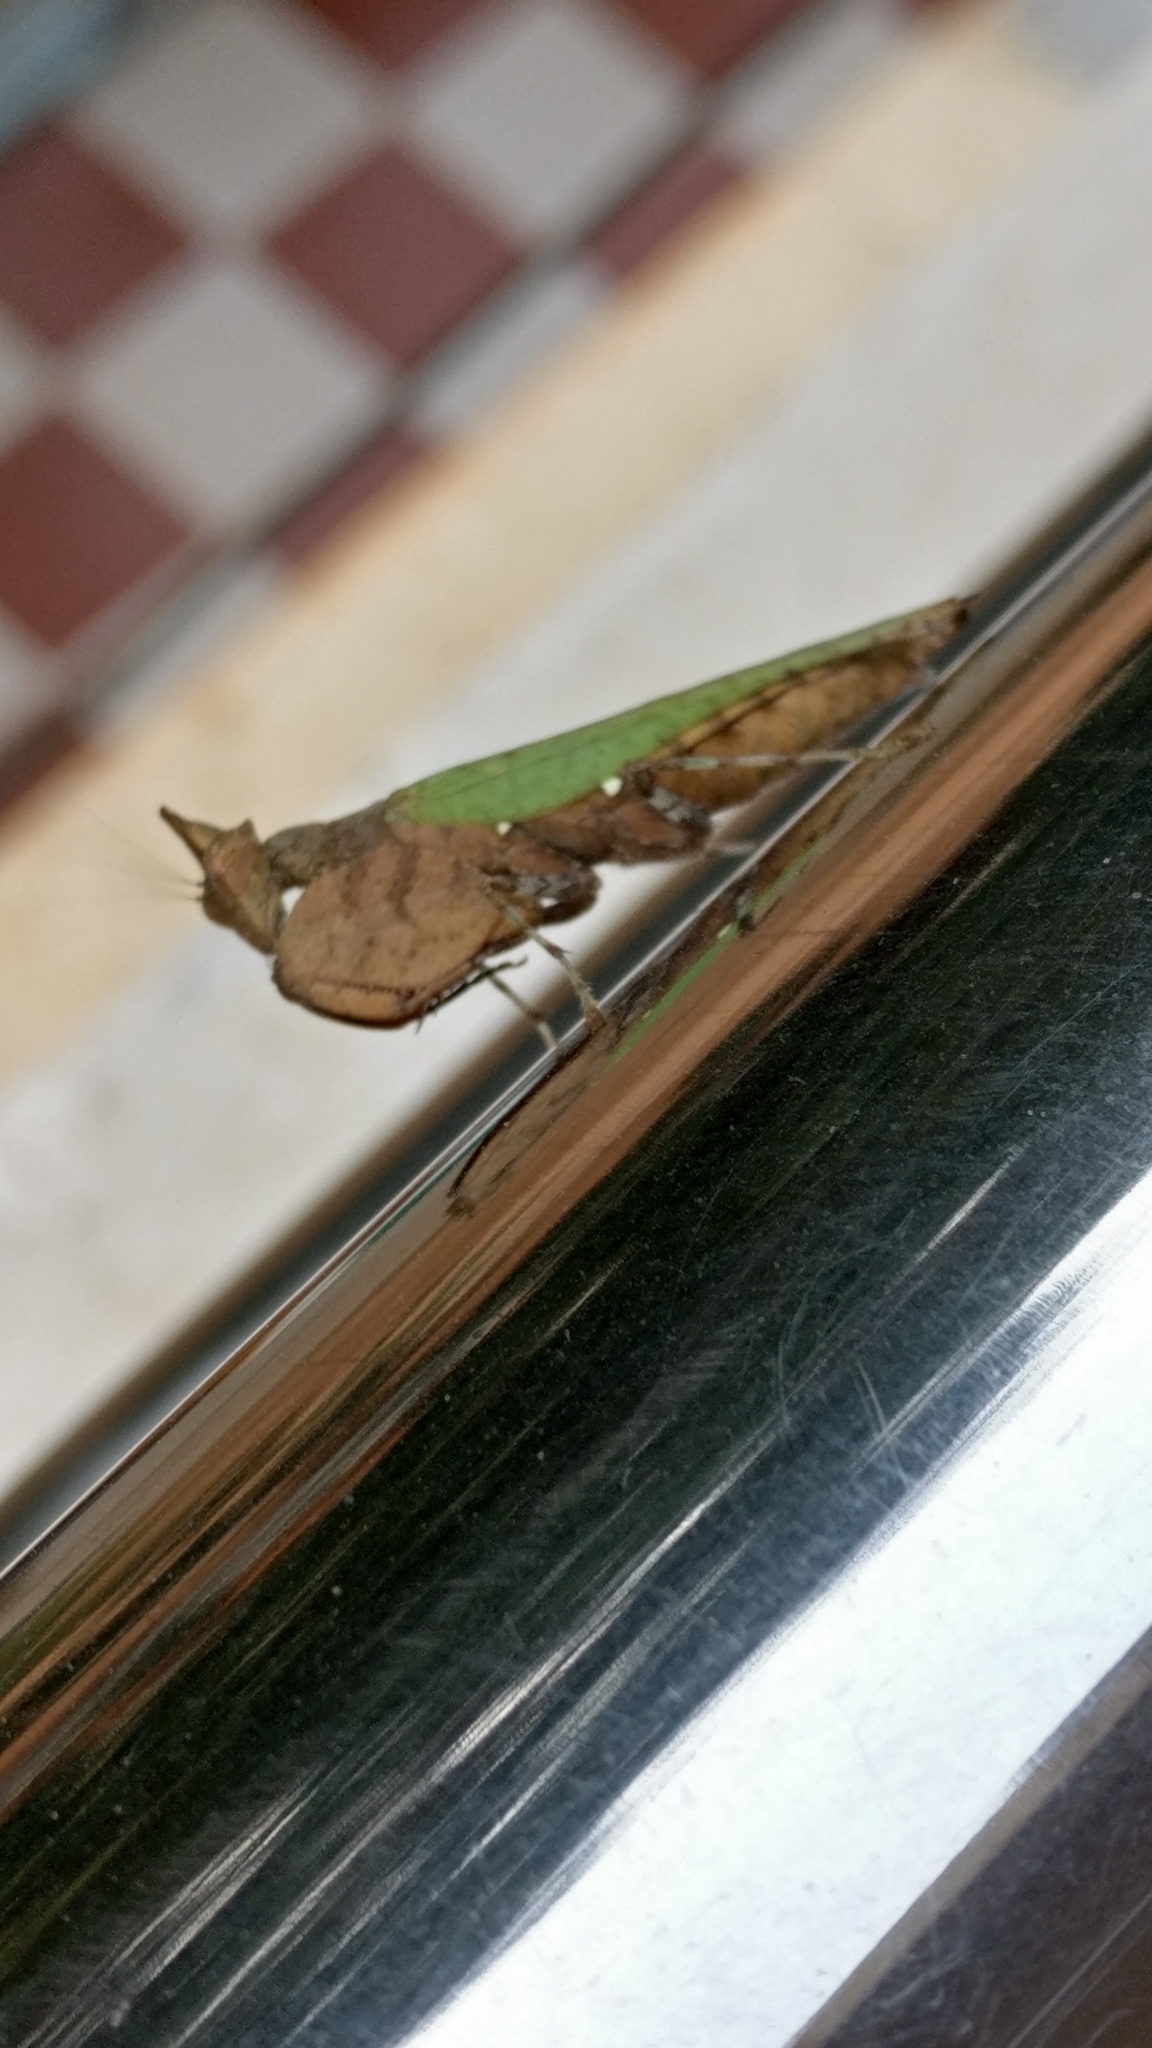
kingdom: Animalia
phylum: Arthropoda
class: Insecta
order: Mantodea
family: Hymenopodidae
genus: Hestiasula
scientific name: Hestiasula brunneriana
